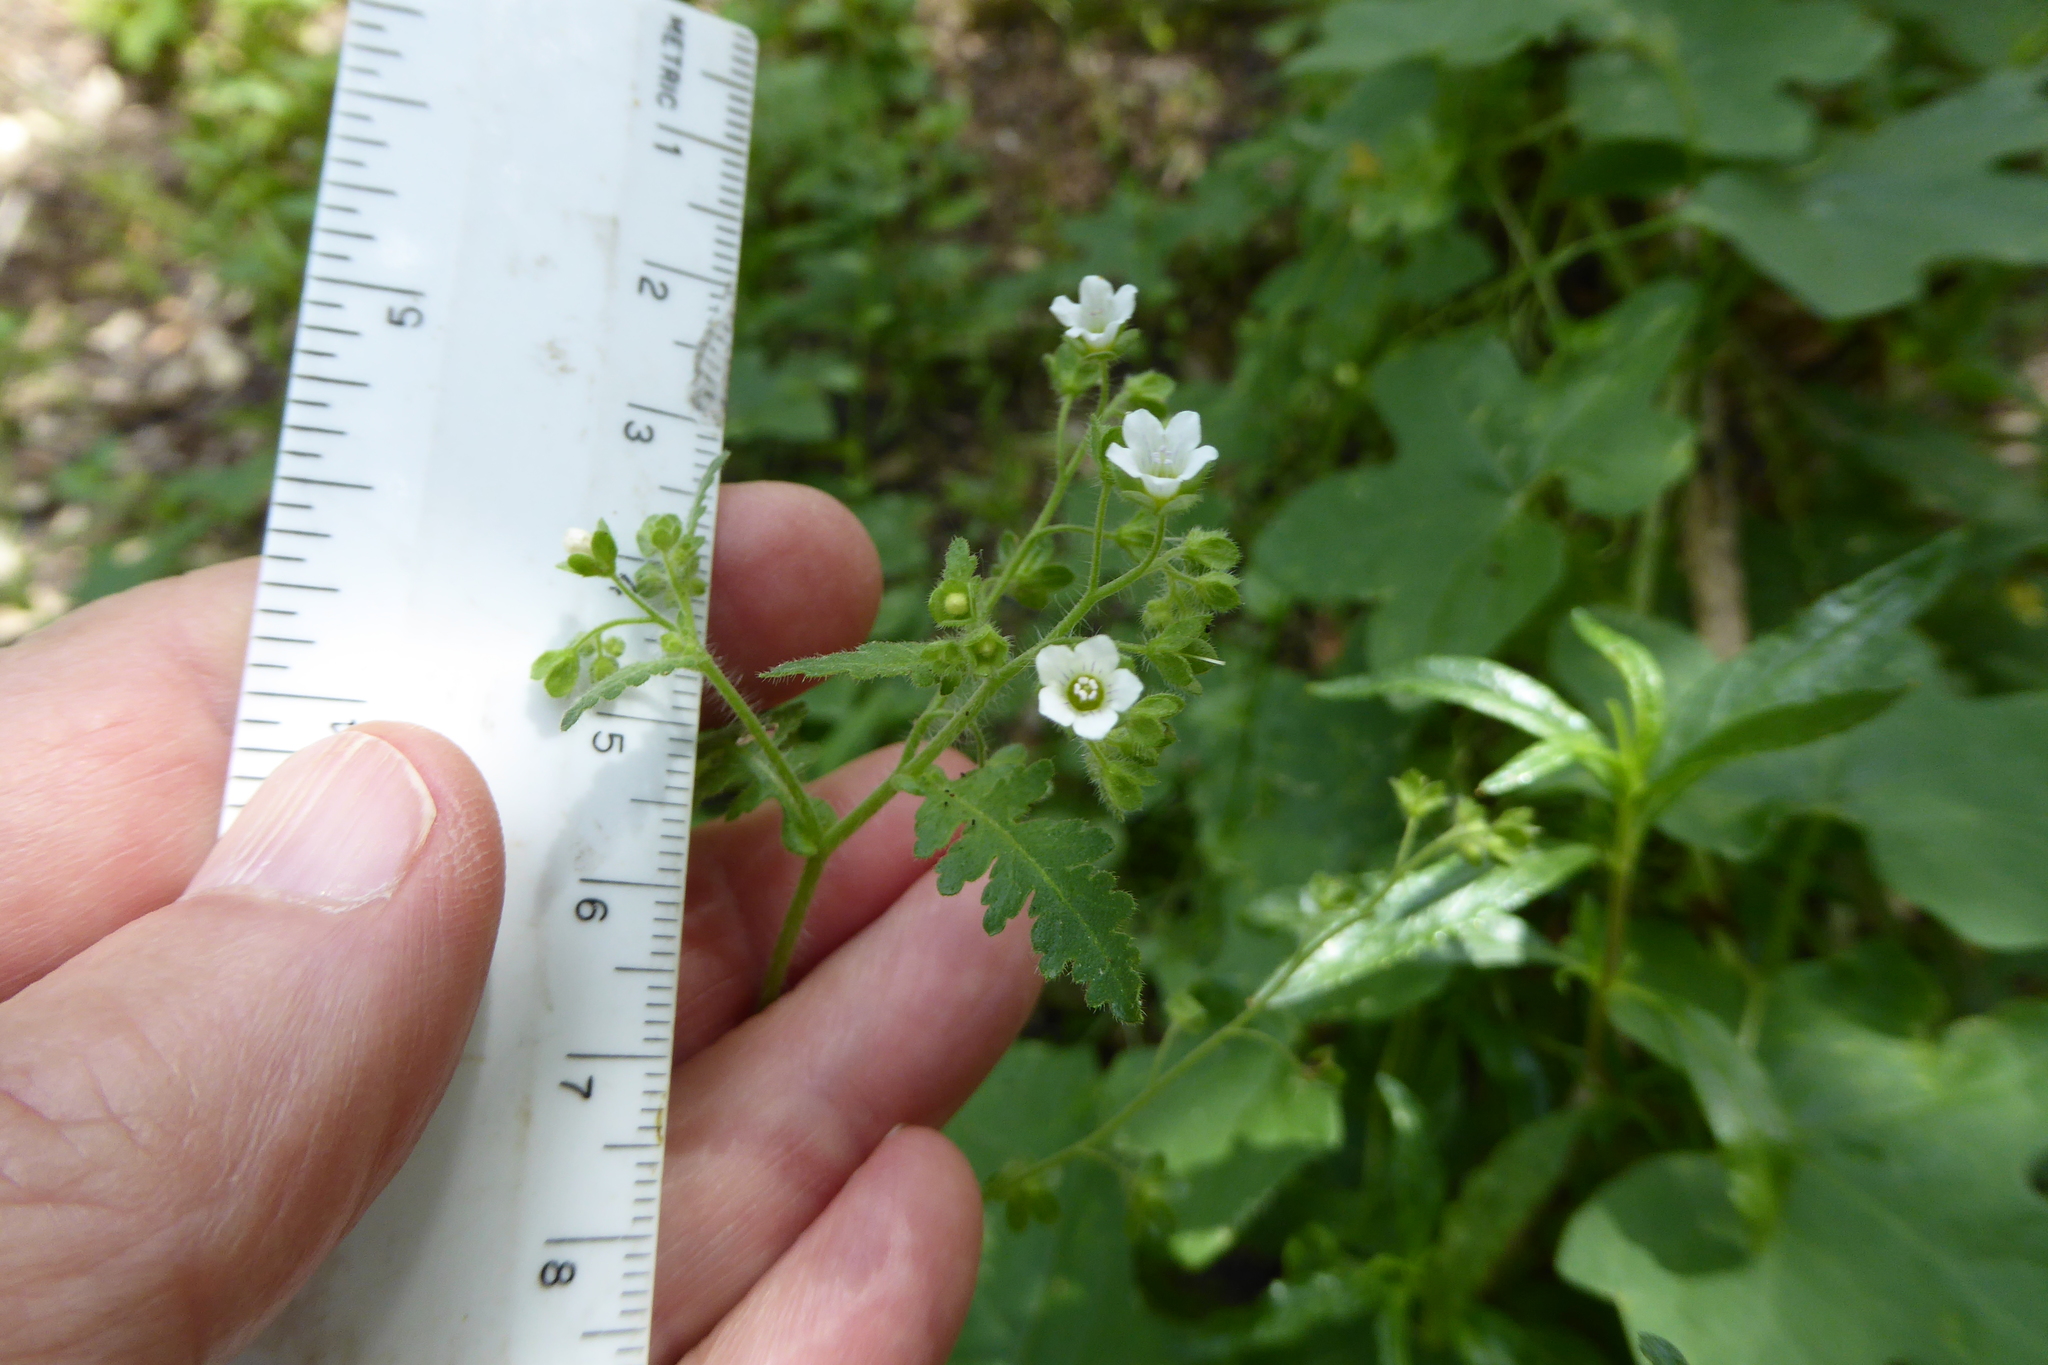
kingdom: Plantae
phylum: Tracheophyta
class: Magnoliopsida
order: Boraginales
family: Hydrophyllaceae
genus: Eucrypta
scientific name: Eucrypta chrysanthemifolia
